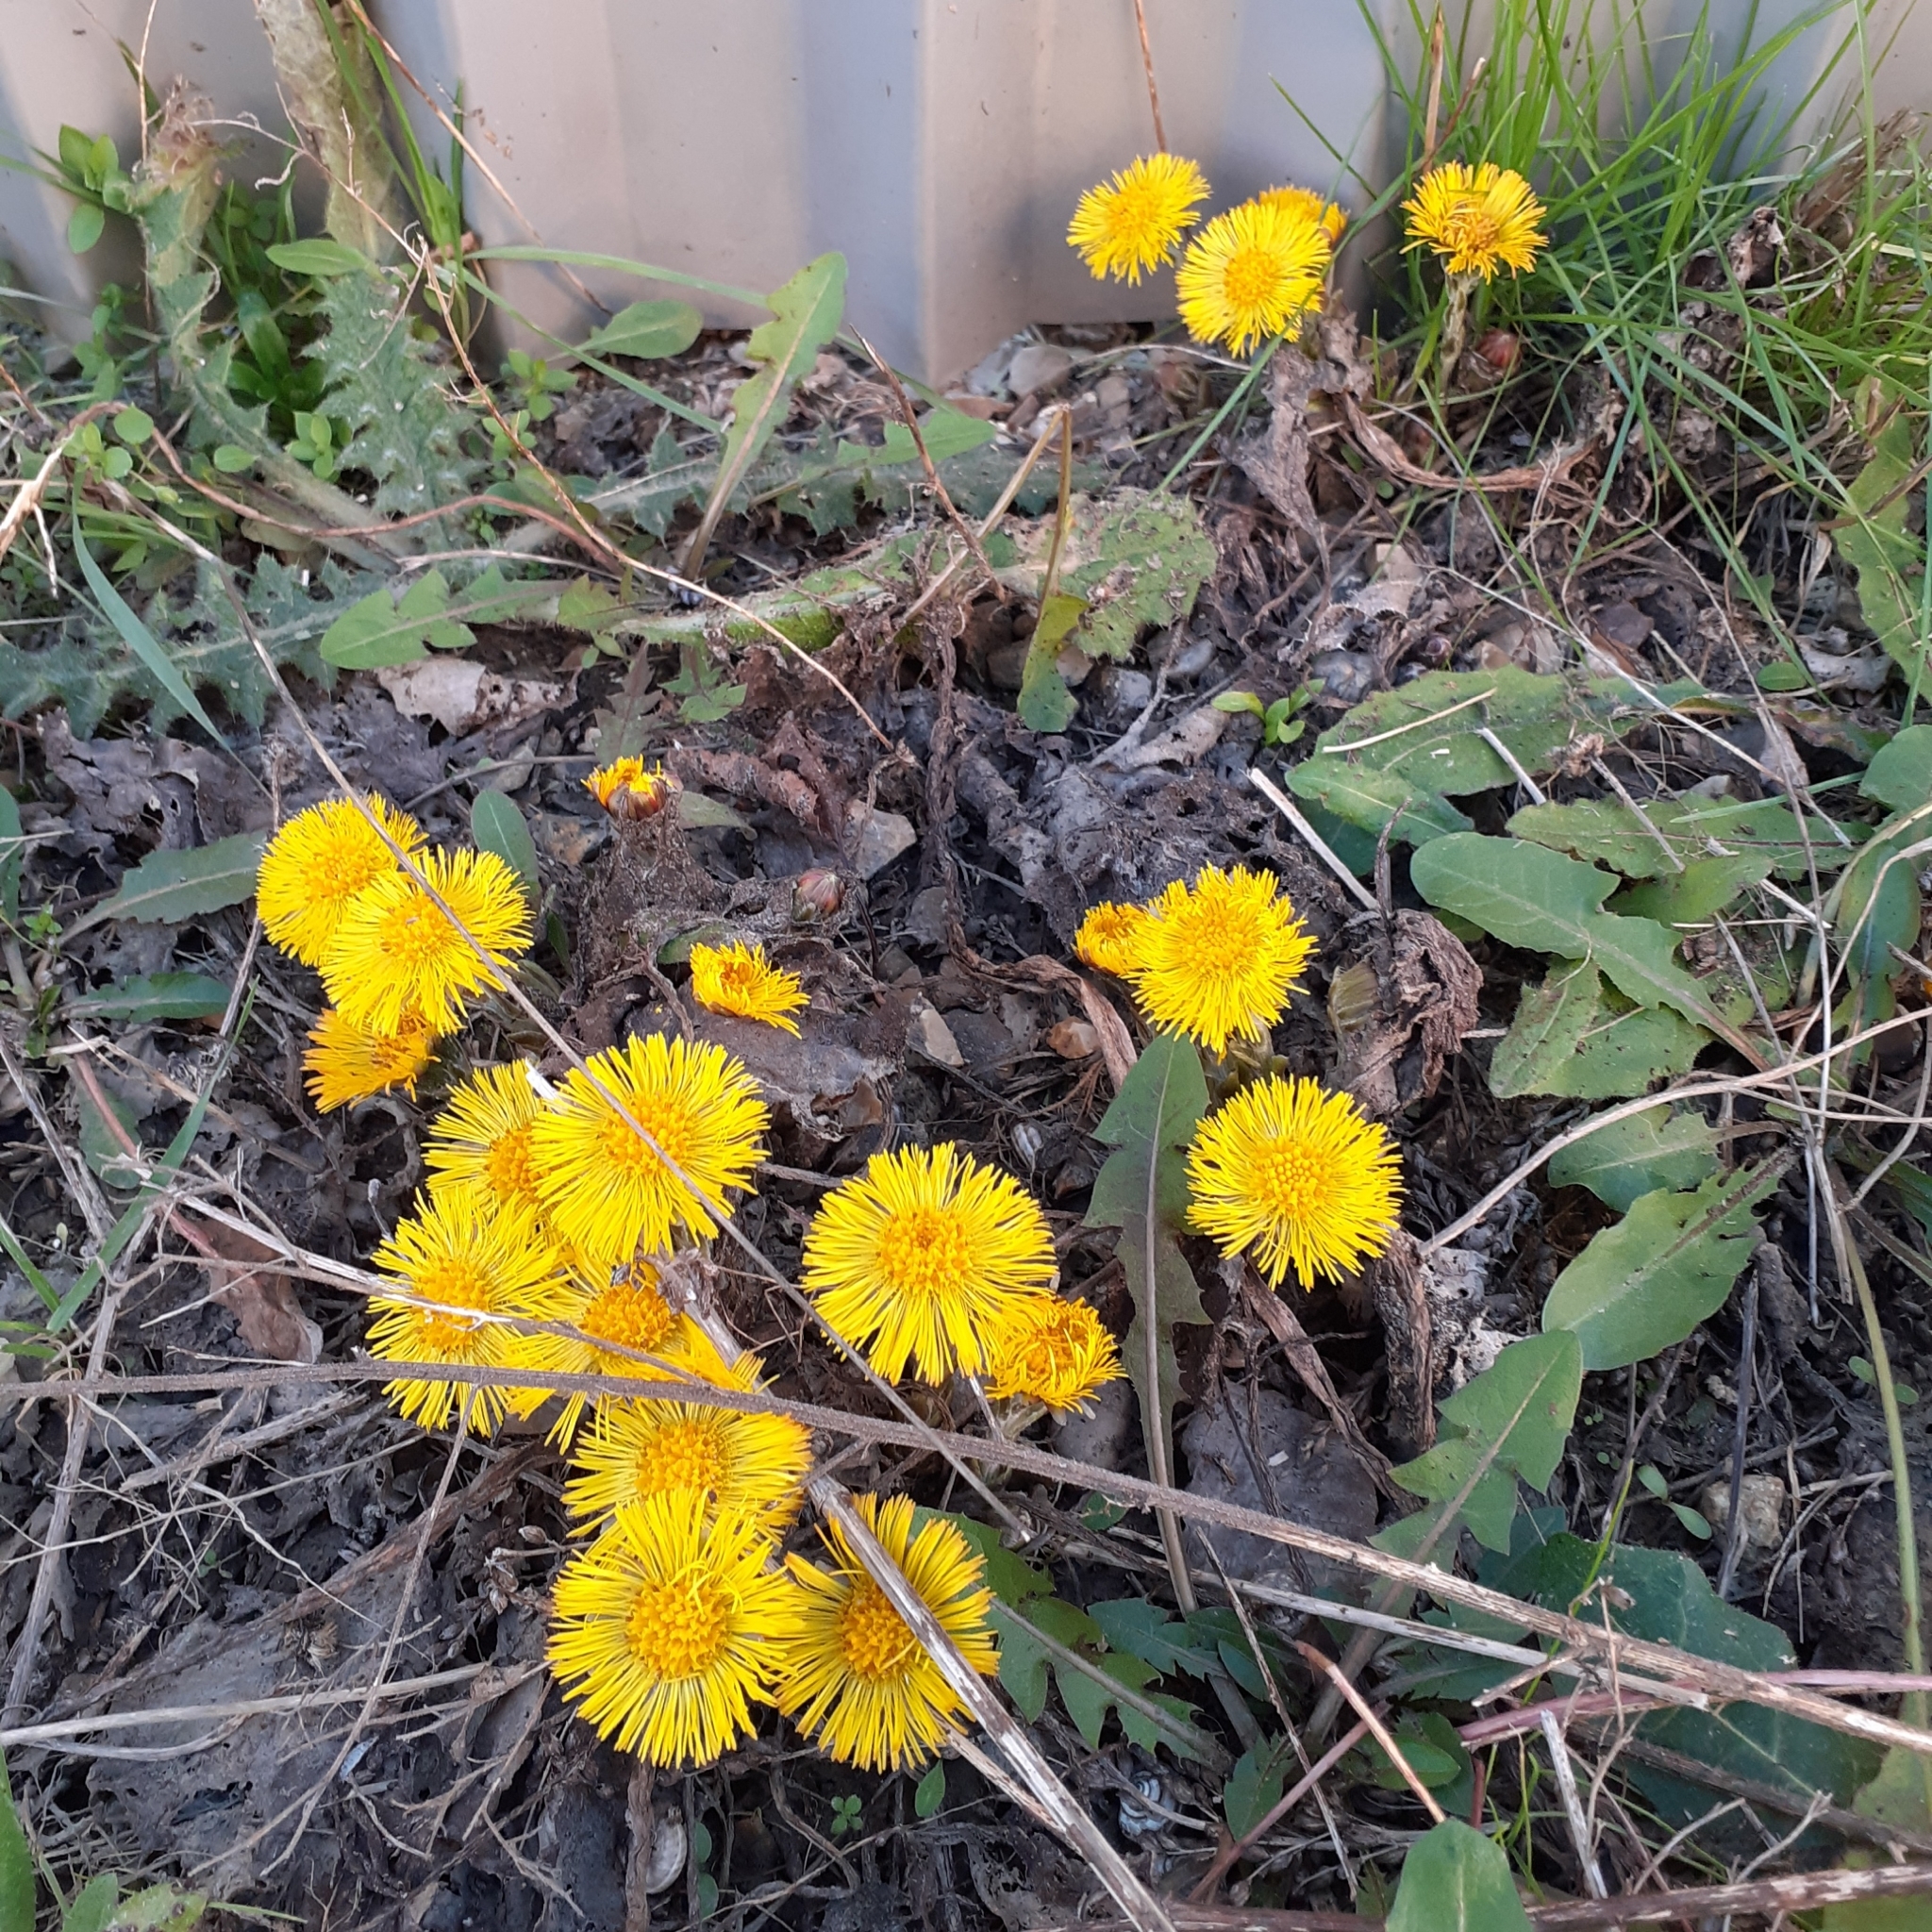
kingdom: Plantae
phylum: Tracheophyta
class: Magnoliopsida
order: Asterales
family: Asteraceae
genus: Tussilago
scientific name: Tussilago farfara
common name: Coltsfoot
